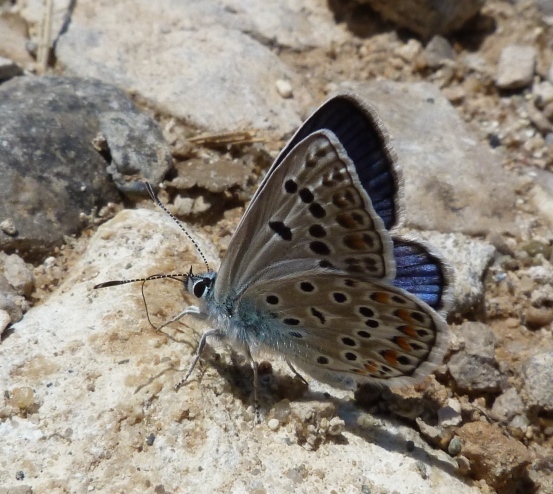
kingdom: Animalia
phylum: Arthropoda
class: Insecta
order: Lepidoptera
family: Lycaenidae
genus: Plebicula
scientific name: Plebicula escheri
